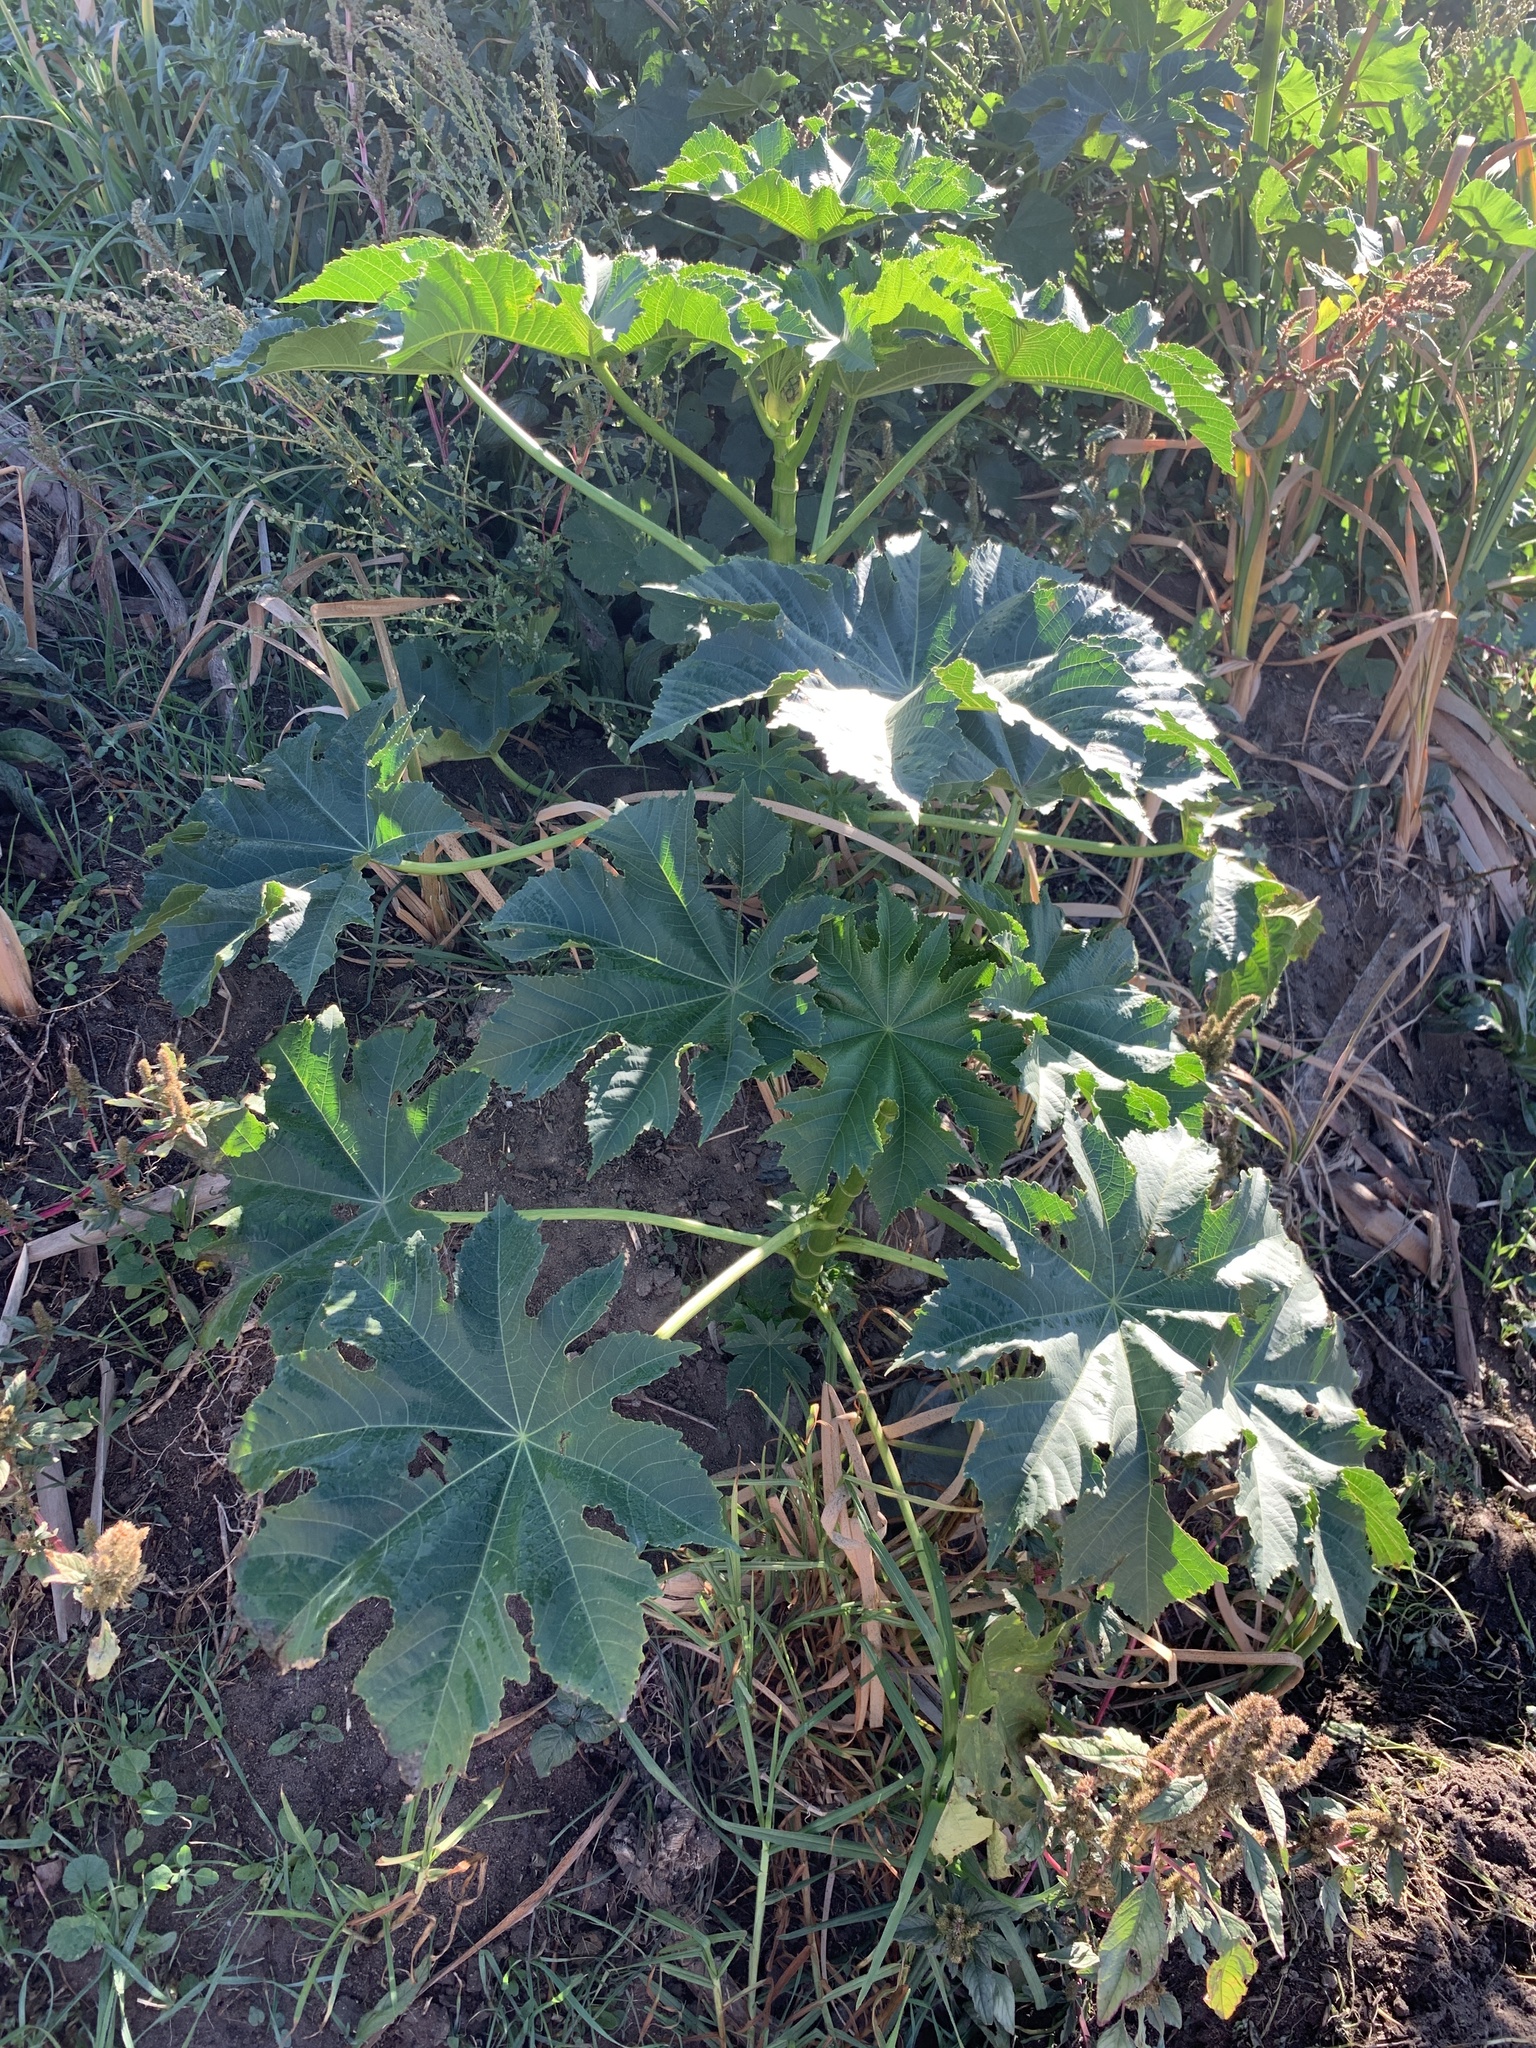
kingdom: Plantae
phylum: Tracheophyta
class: Magnoliopsida
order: Malpighiales
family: Euphorbiaceae
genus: Ricinus
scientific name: Ricinus communis
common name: Castor-oil-plant
